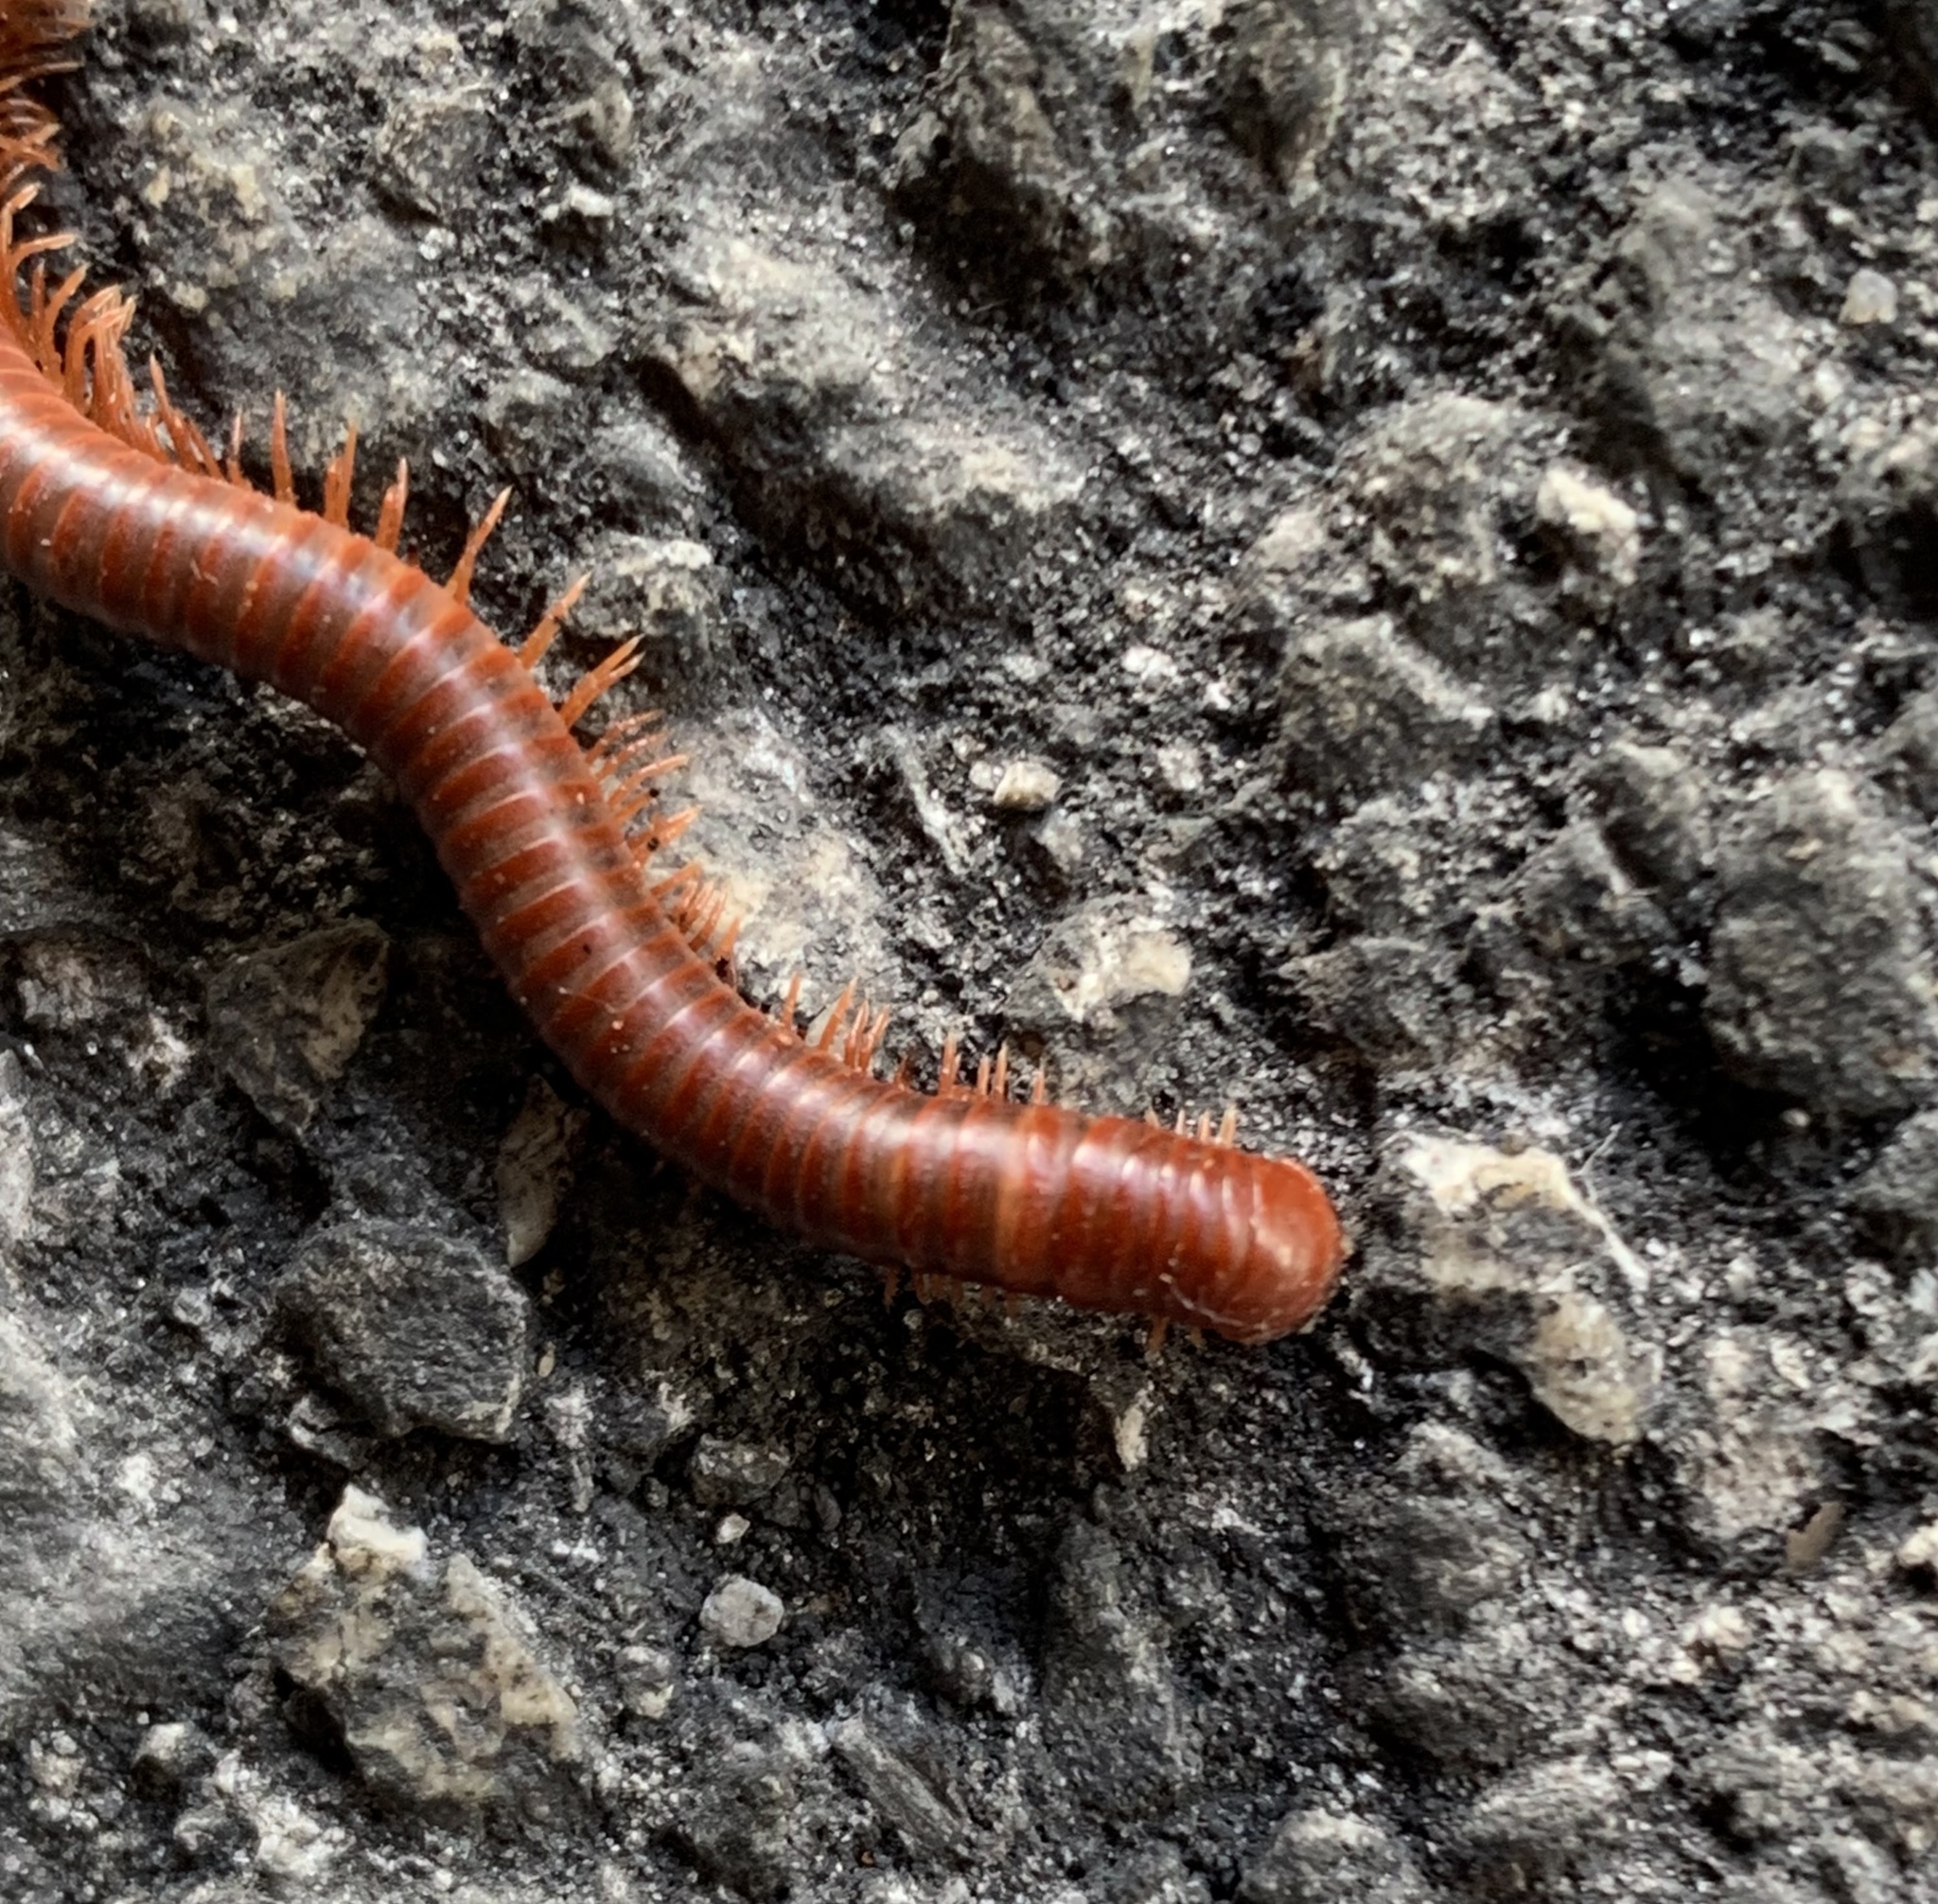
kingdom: Animalia
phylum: Arthropoda
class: Diplopoda
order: Spirobolida
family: Pachybolidae
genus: Trigoniulus
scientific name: Trigoniulus corallinus
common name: Millipede
